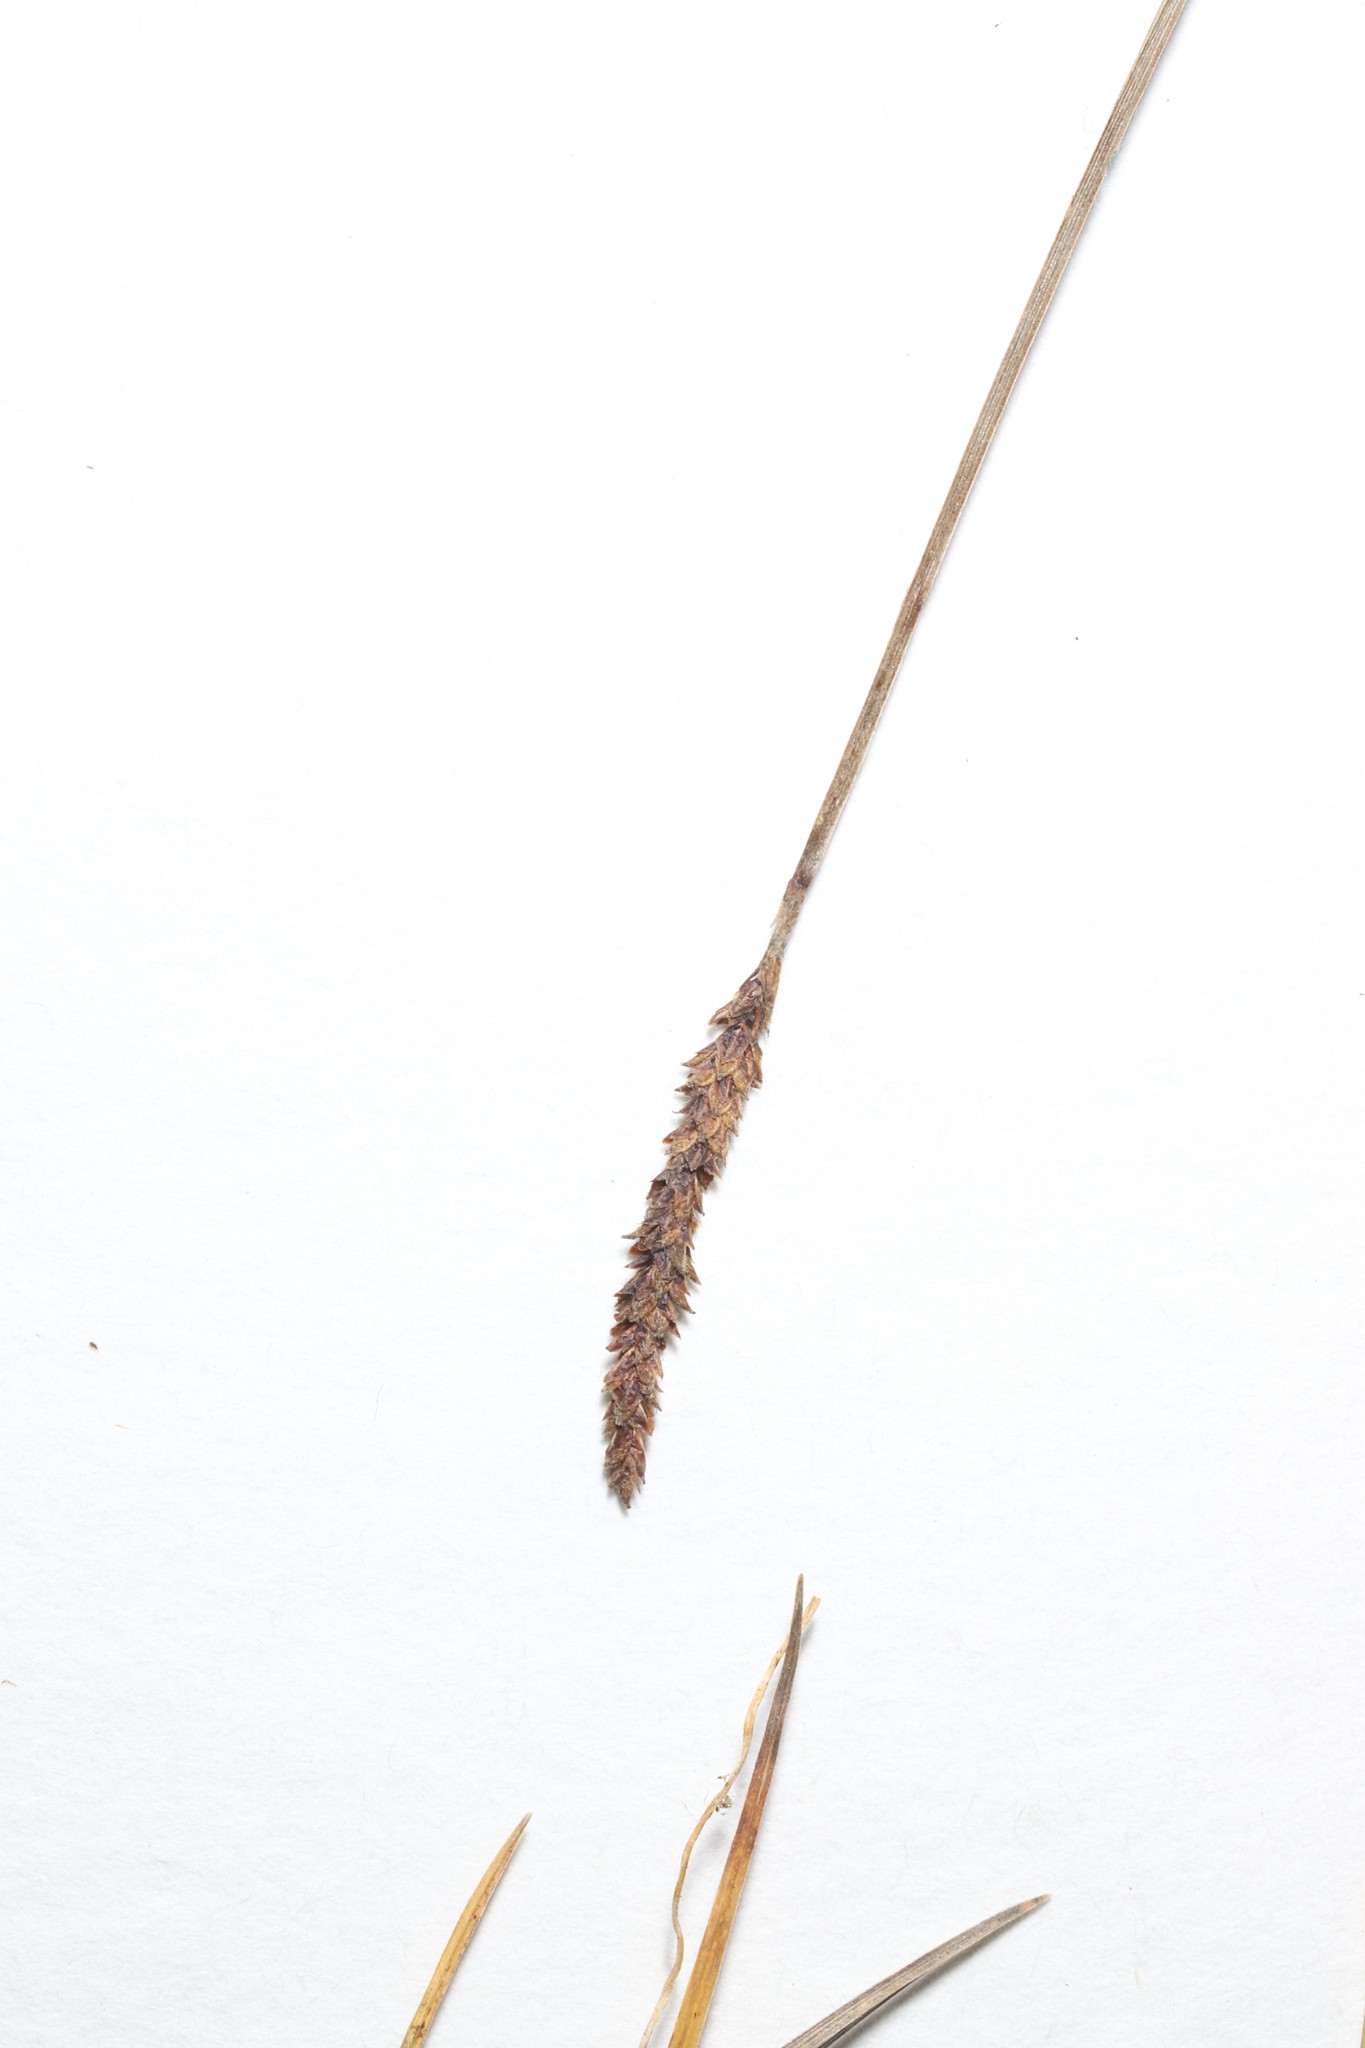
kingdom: Plantae
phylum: Tracheophyta
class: Liliopsida
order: Poales
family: Cyperaceae
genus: Carex
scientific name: Carex scirpoidea
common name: Canada single-spike sedge
